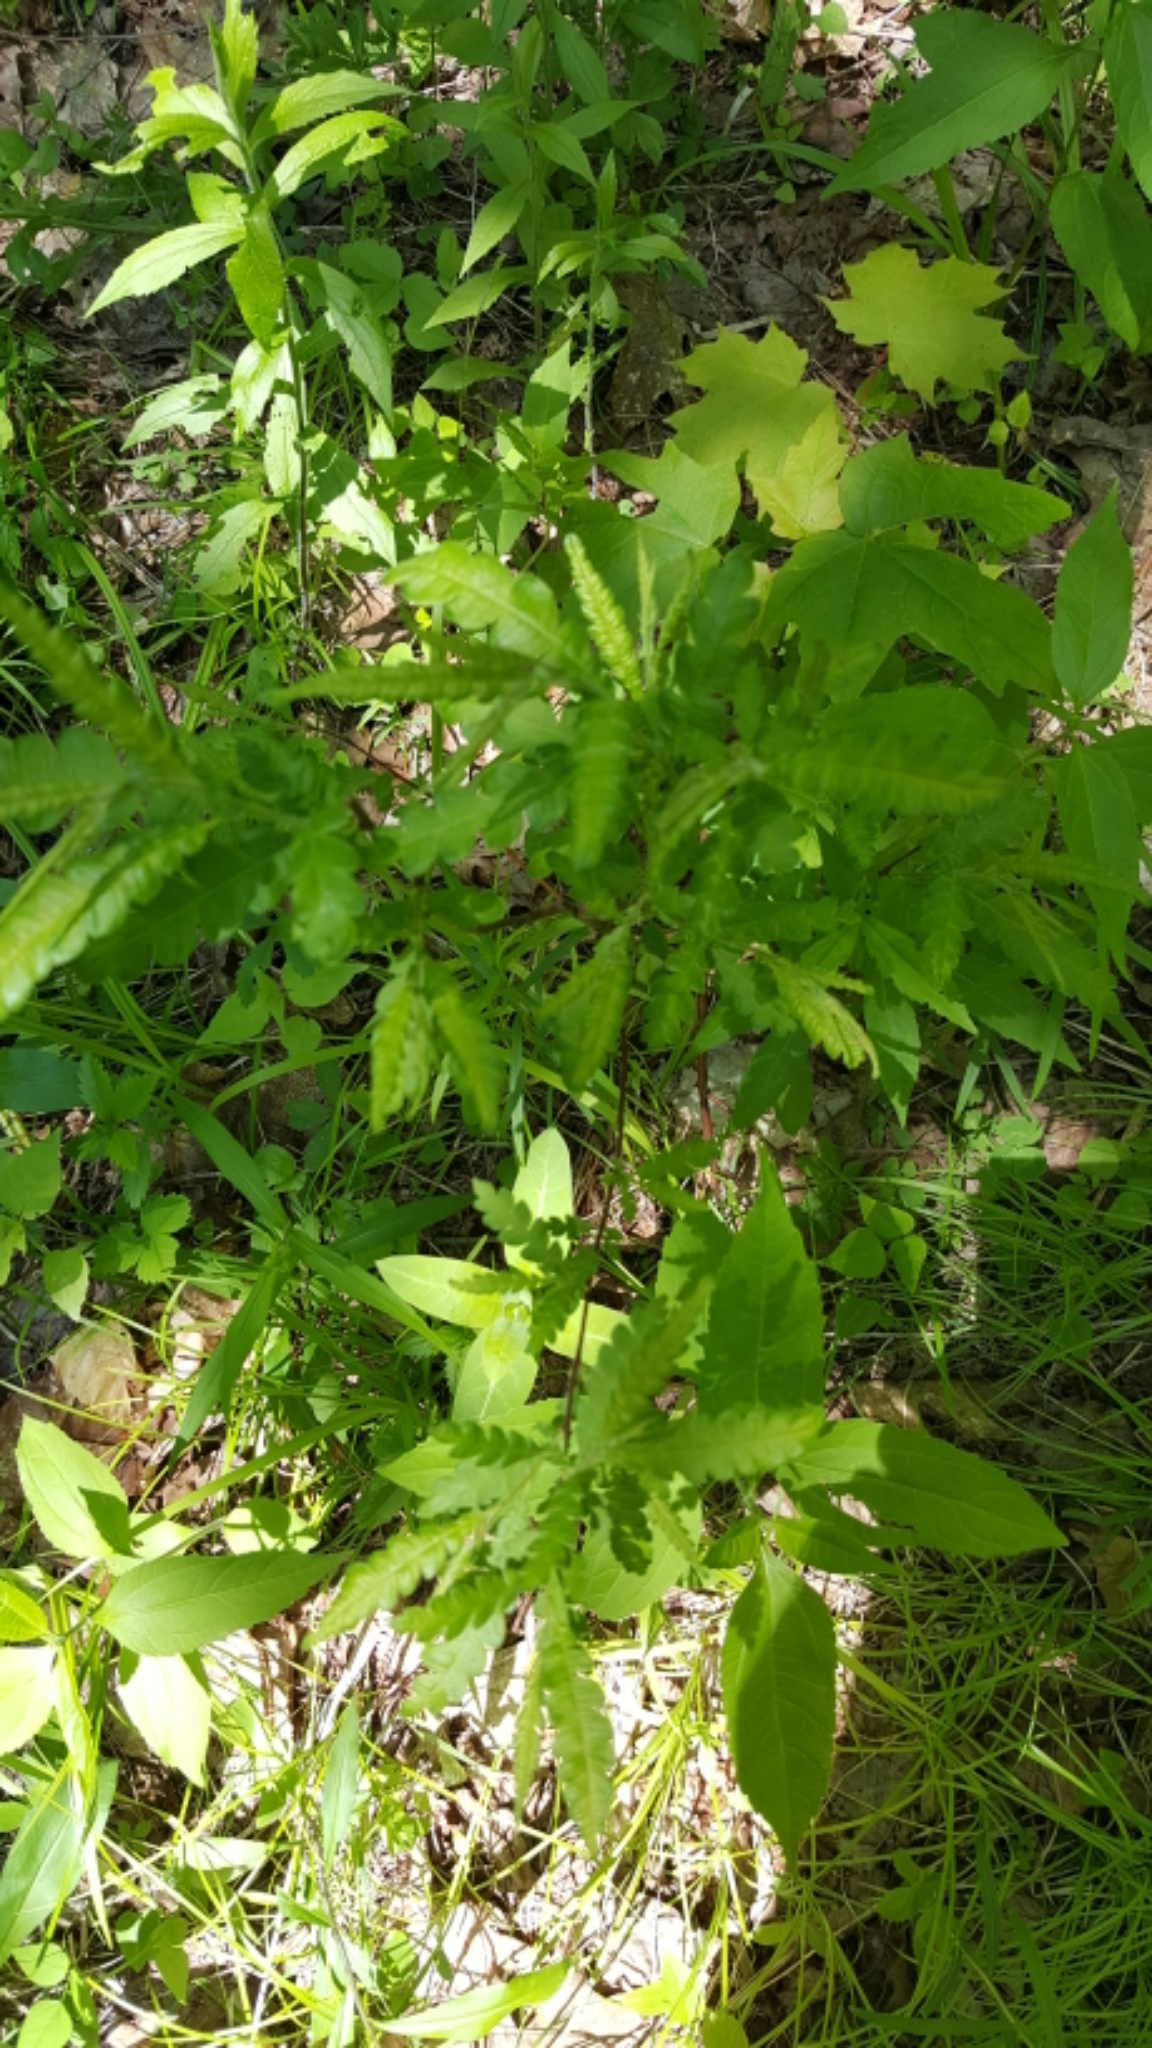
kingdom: Plantae
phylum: Tracheophyta
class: Magnoliopsida
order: Fagales
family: Myricaceae
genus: Comptonia
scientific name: Comptonia peregrina
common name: Sweet-fern
